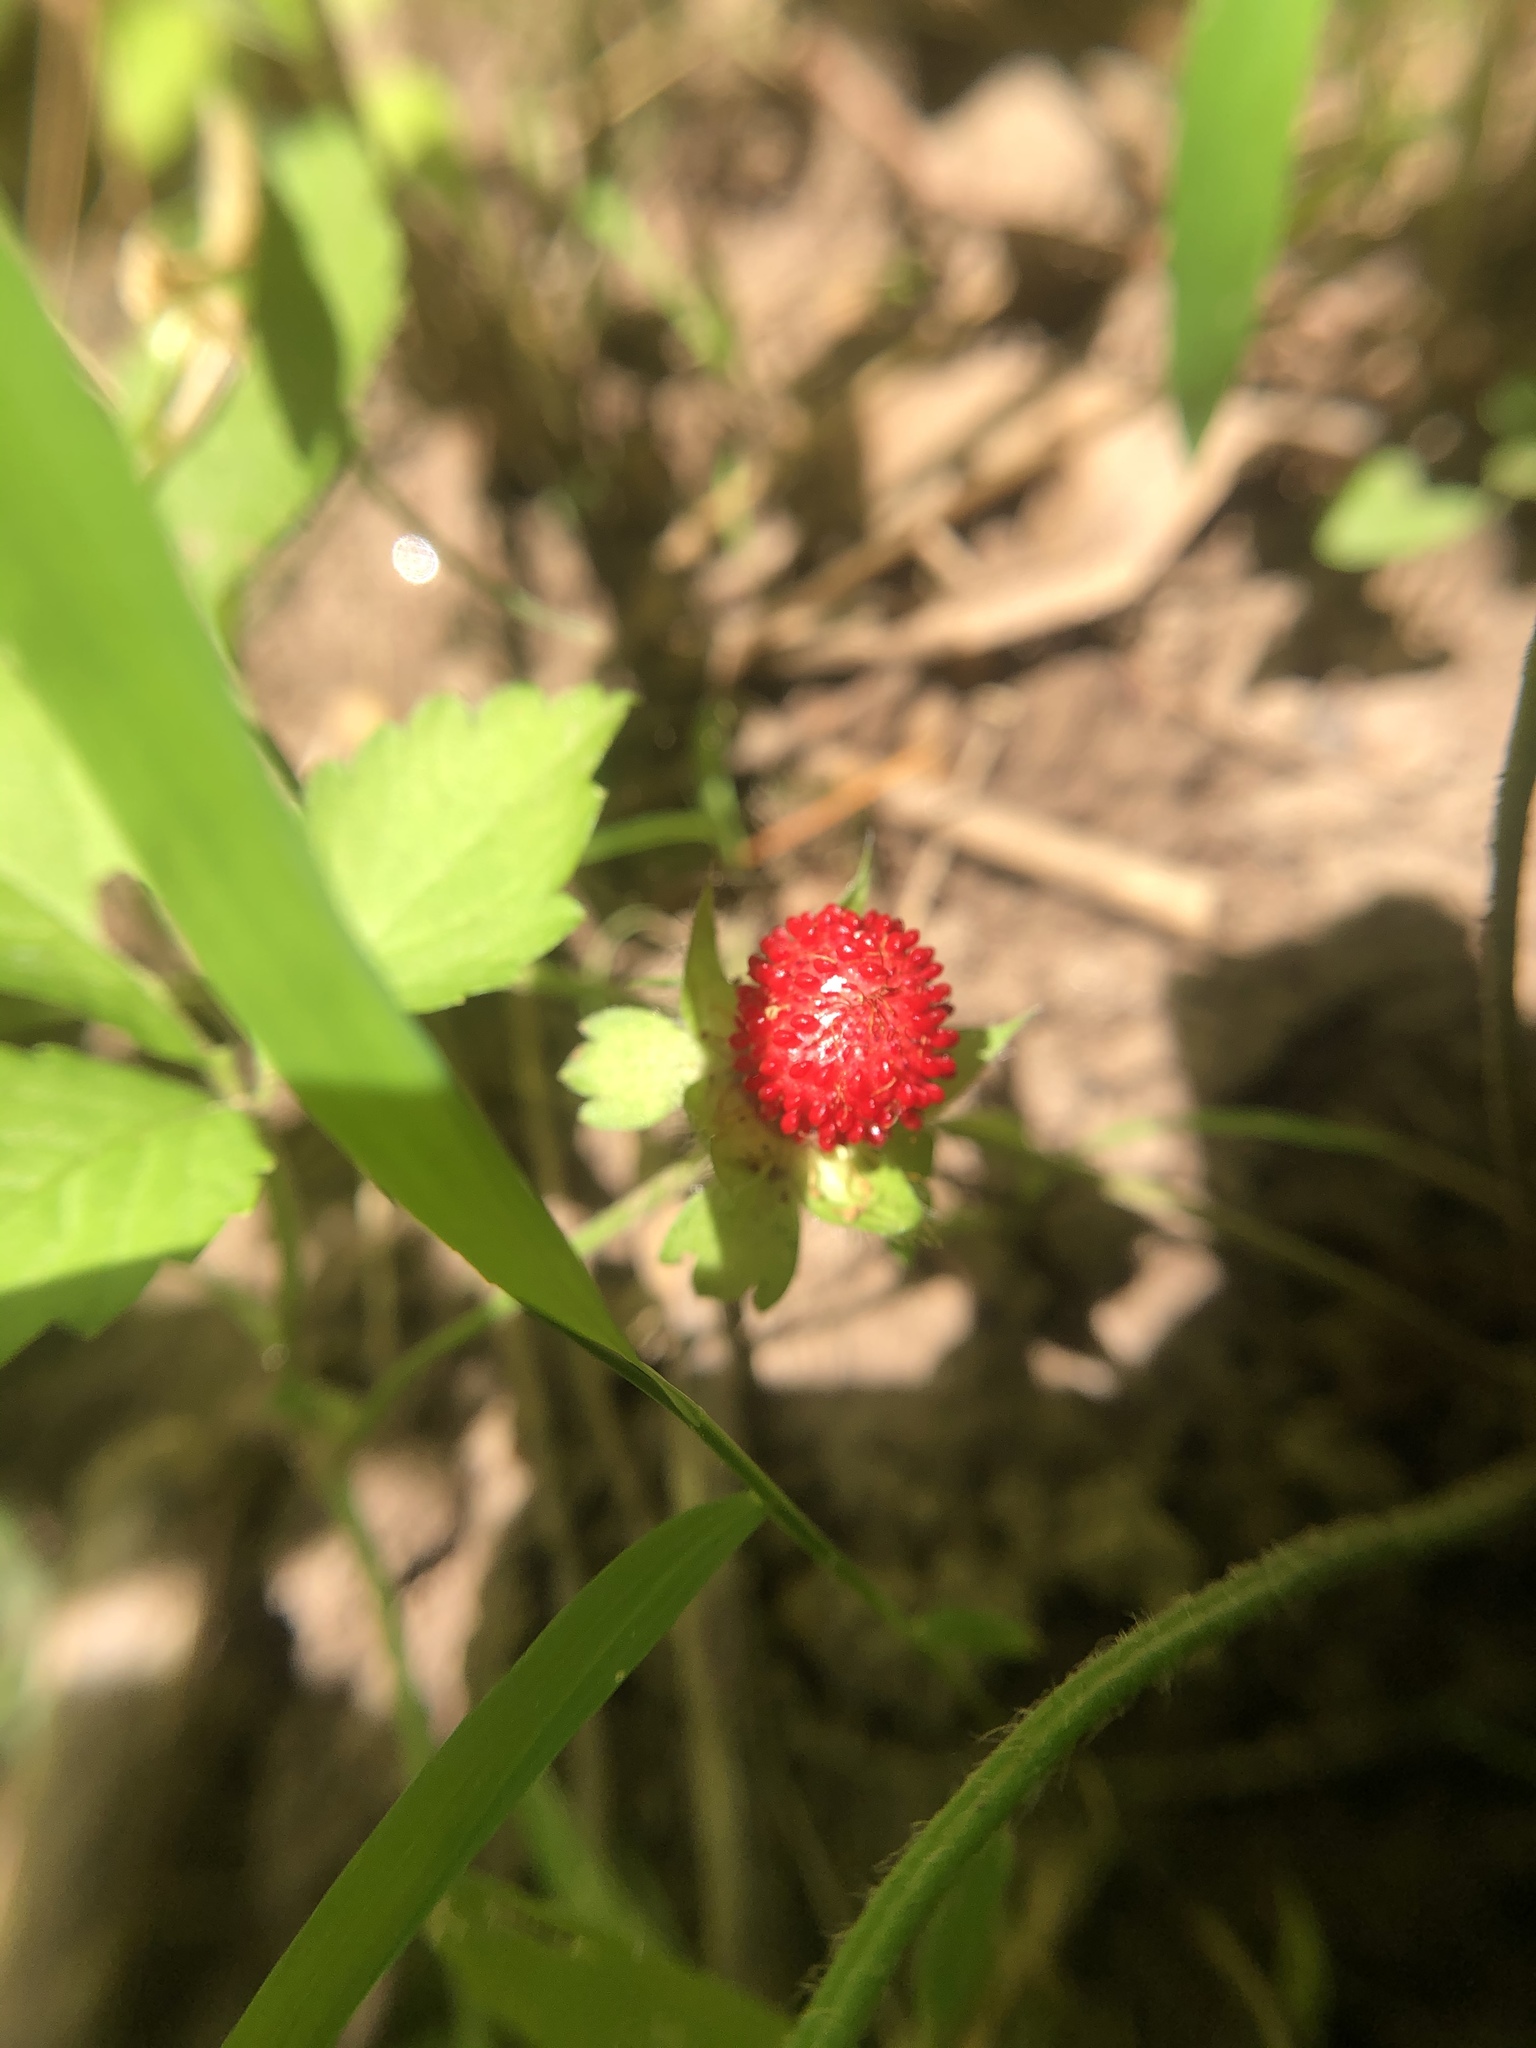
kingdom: Plantae
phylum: Tracheophyta
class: Magnoliopsida
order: Rosales
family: Rosaceae
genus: Potentilla
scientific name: Potentilla indica
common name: Yellow-flowered strawberry
